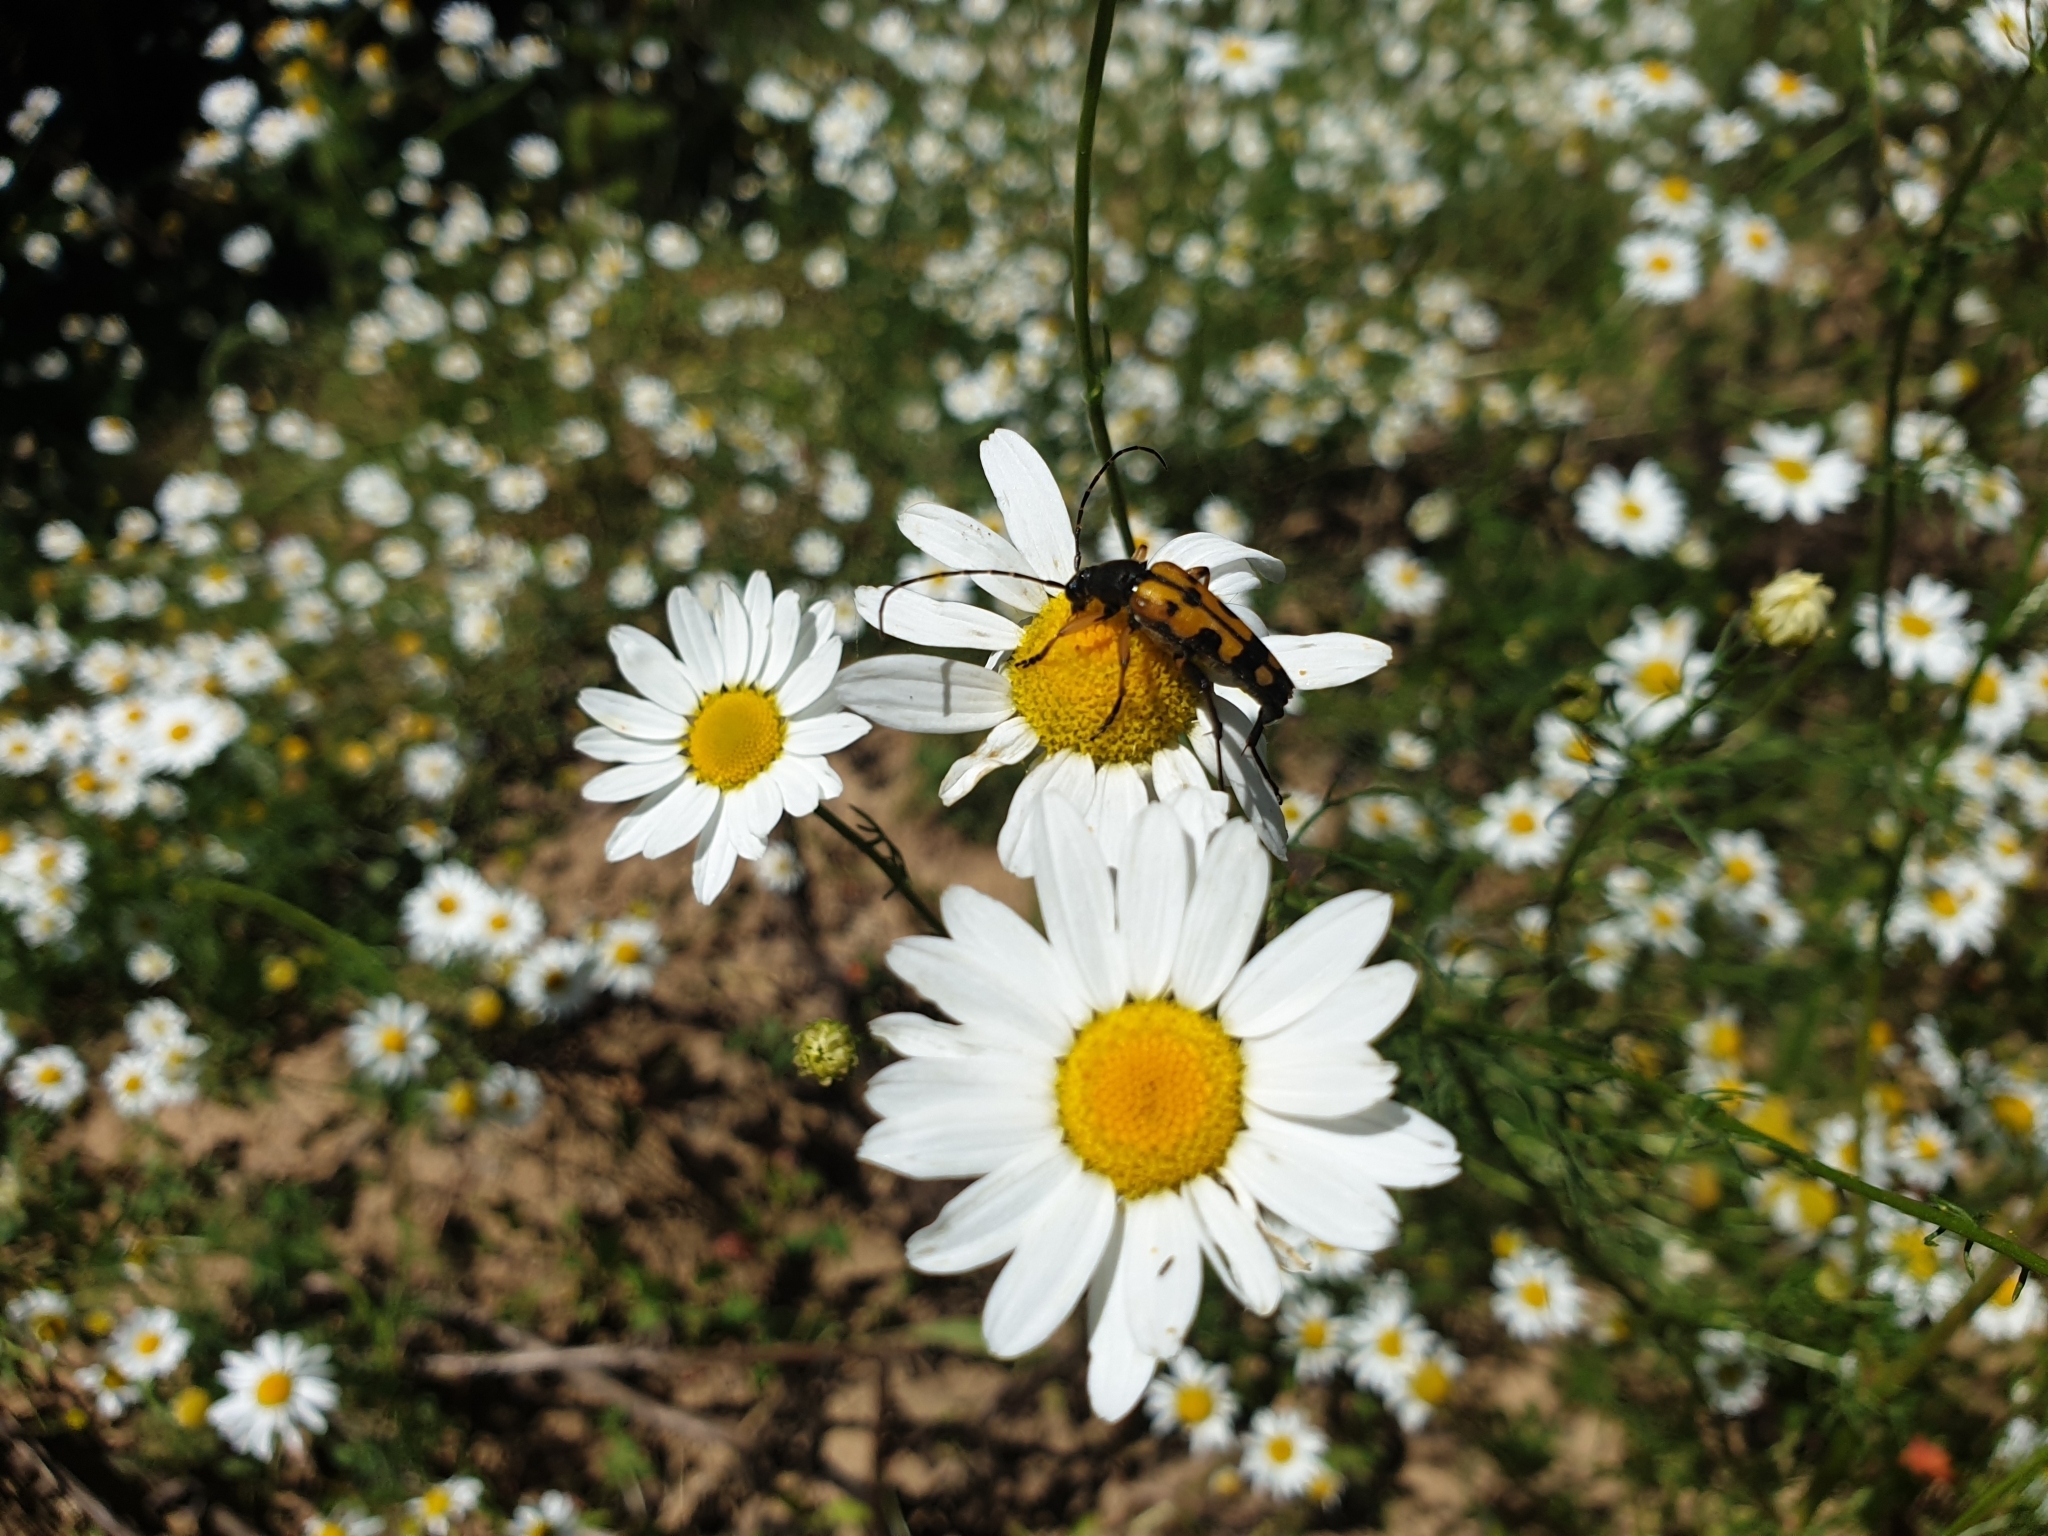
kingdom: Animalia
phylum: Arthropoda
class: Insecta
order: Coleoptera
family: Cerambycidae
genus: Rutpela
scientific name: Rutpela maculata
